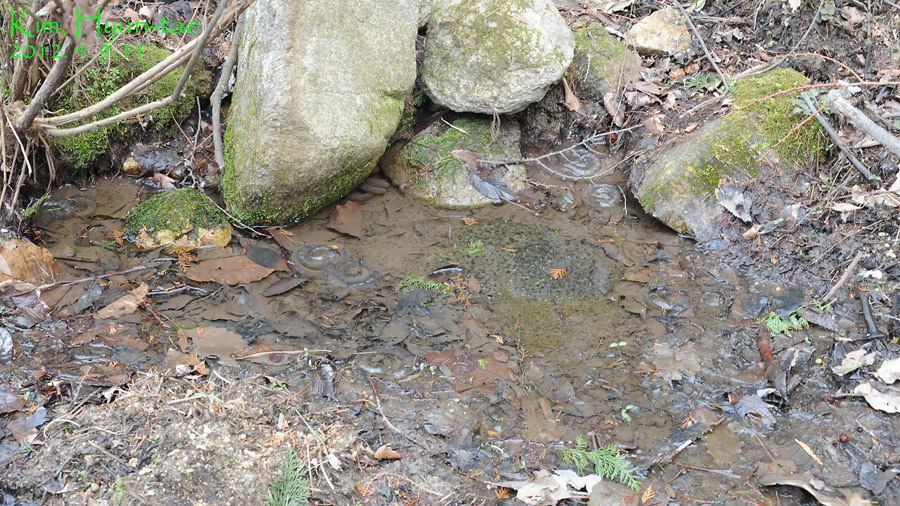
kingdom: Animalia
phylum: Chordata
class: Amphibia
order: Caudata
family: Hynobiidae
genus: Hynobius
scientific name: Hynobius quelpaertensis
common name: Cheju salamander
